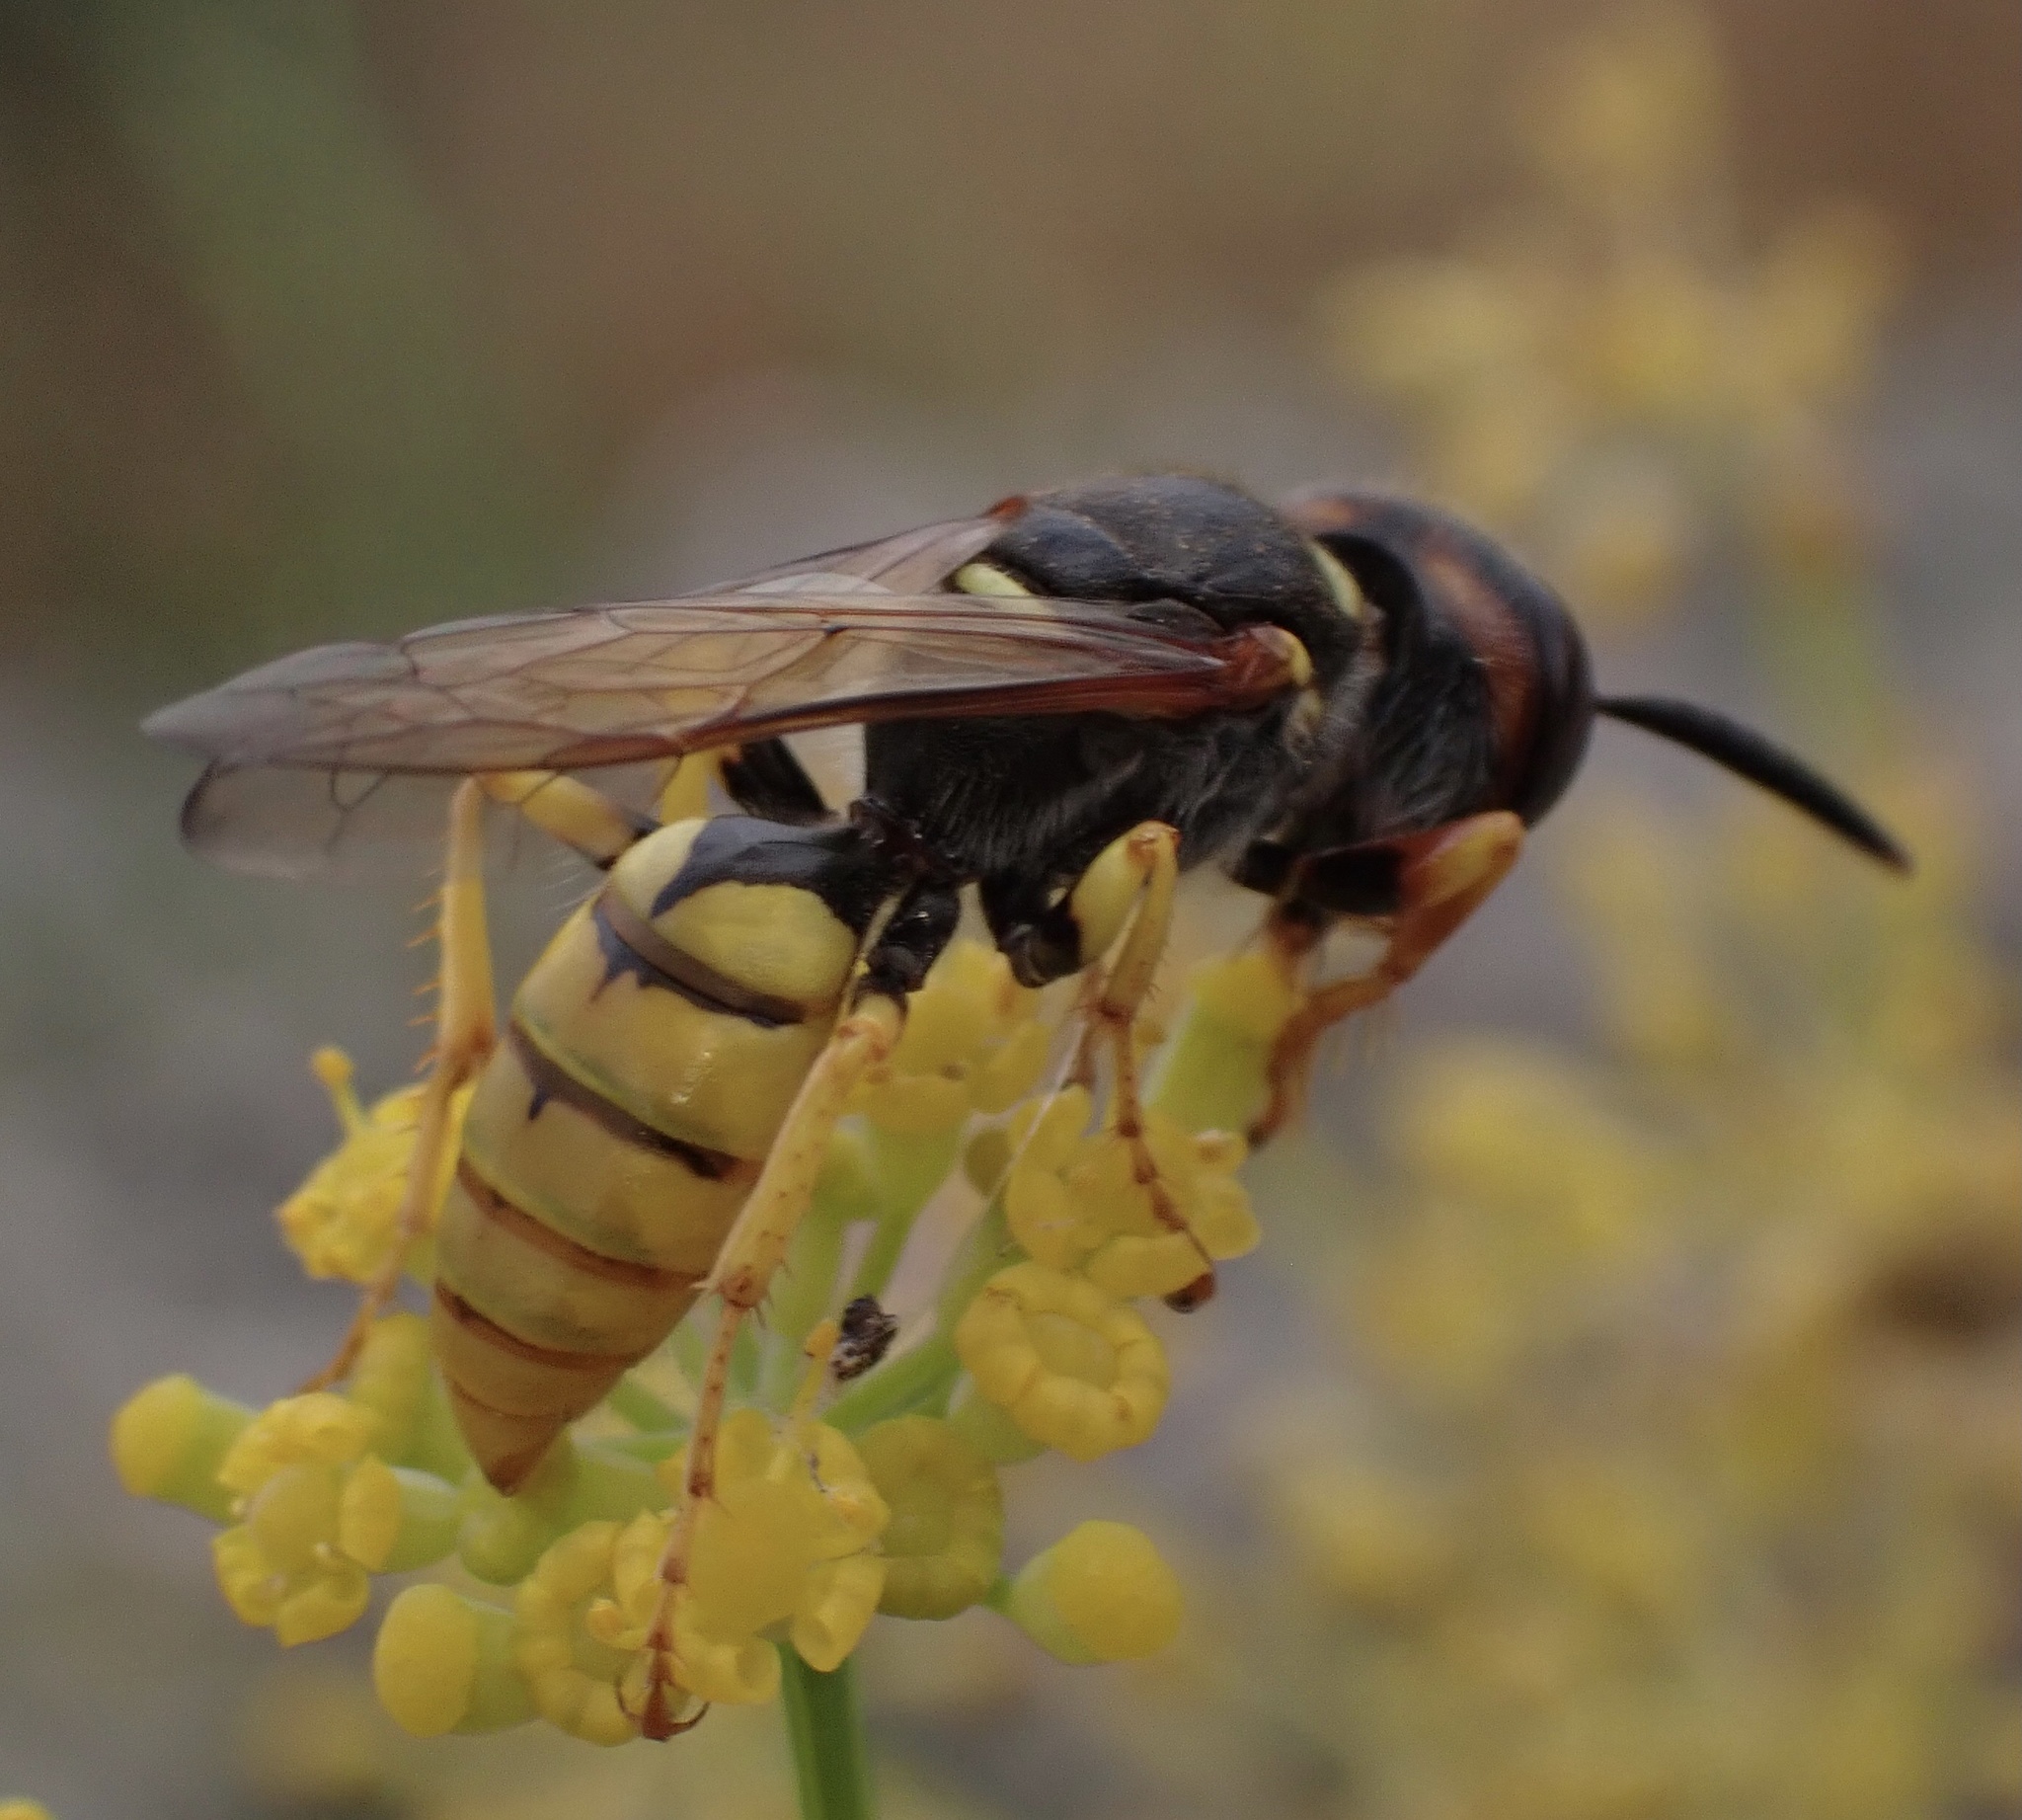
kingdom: Animalia
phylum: Arthropoda
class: Insecta
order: Hymenoptera
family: Crabronidae
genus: Philanthus
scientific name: Philanthus triangulum
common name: Bee wolf
